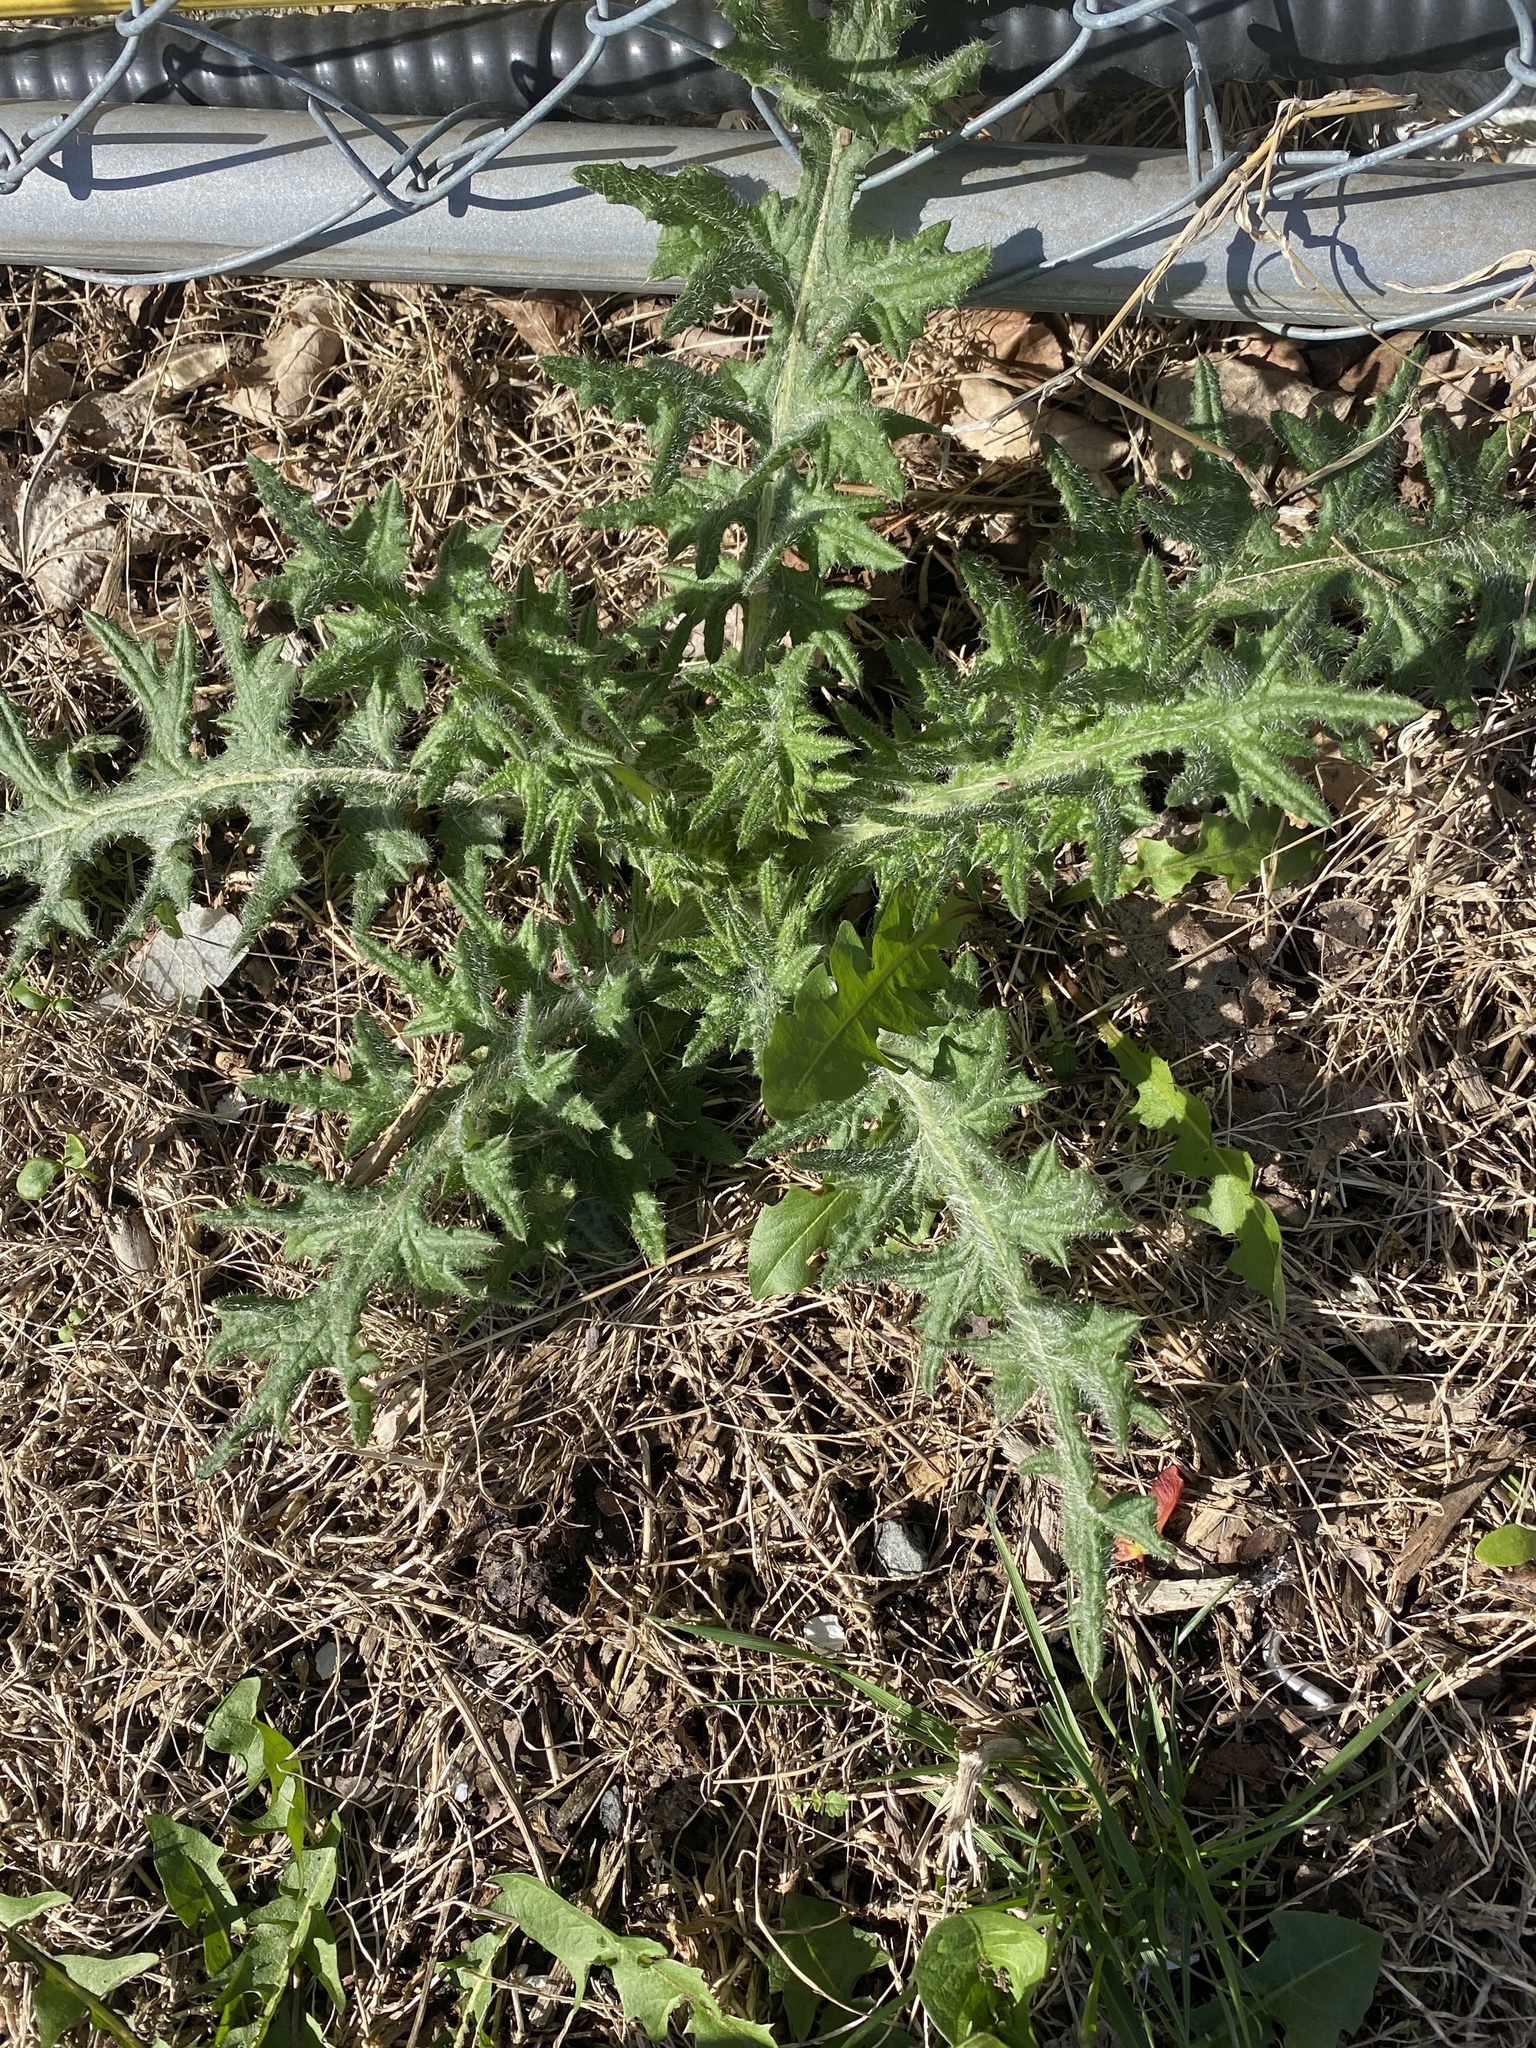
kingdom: Plantae
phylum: Tracheophyta
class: Magnoliopsida
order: Asterales
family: Asteraceae
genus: Cirsium
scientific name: Cirsium vulgare
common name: Bull thistle
